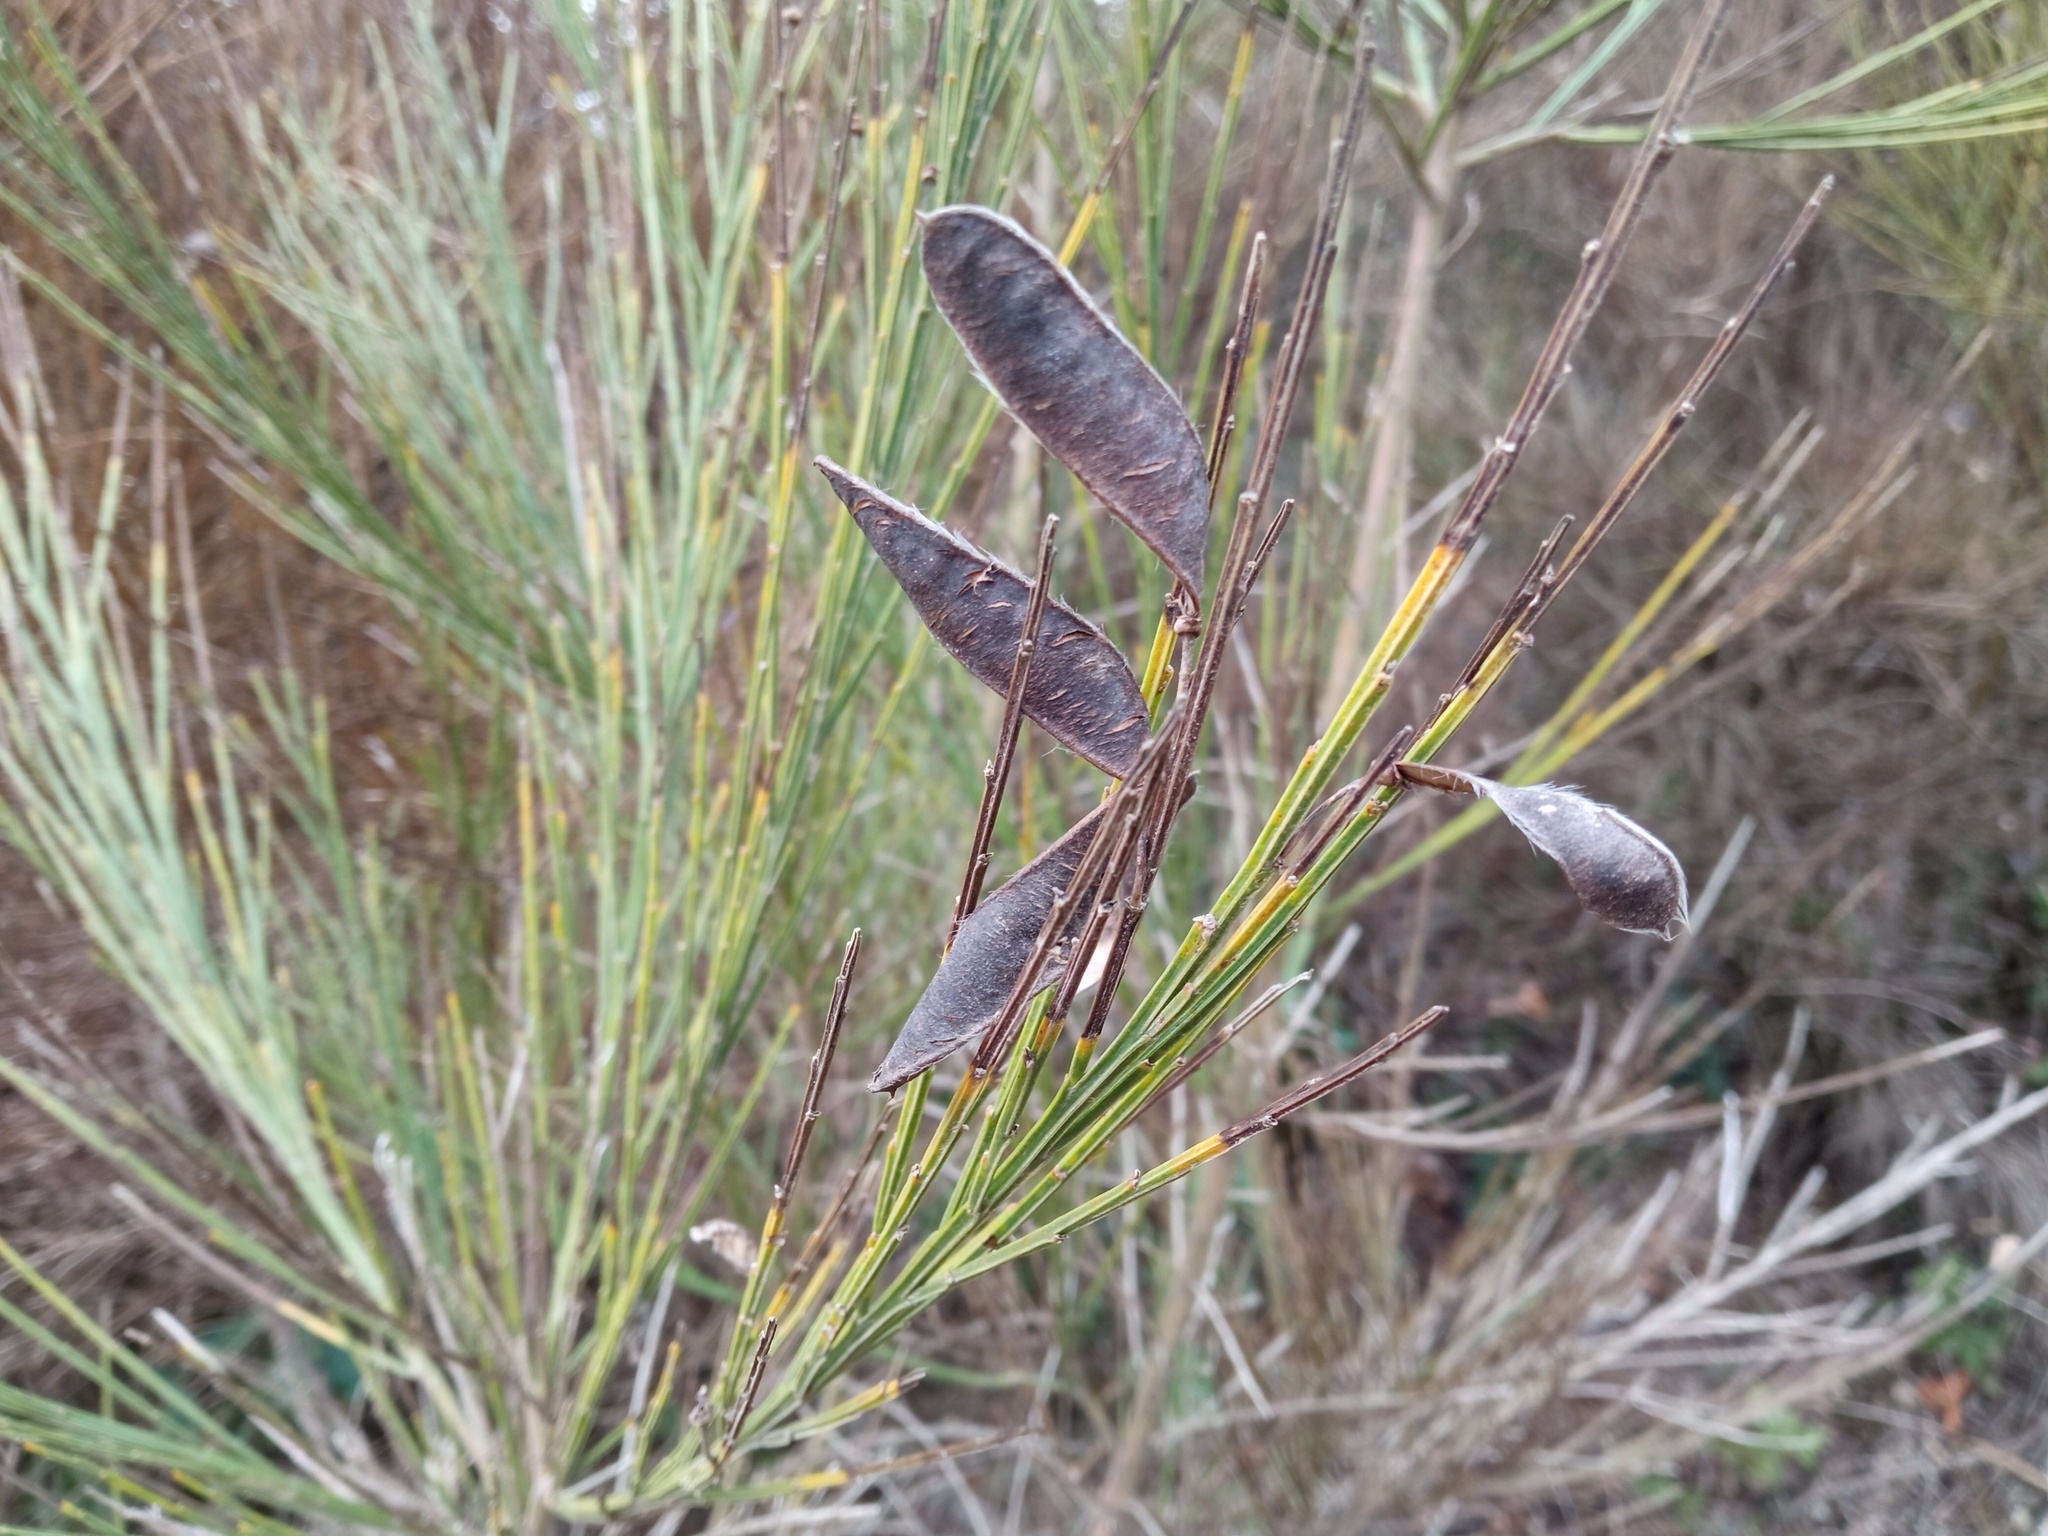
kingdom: Plantae
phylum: Tracheophyta
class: Magnoliopsida
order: Fabales
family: Fabaceae
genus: Cytisus
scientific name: Cytisus scoparius
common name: Scotch broom
